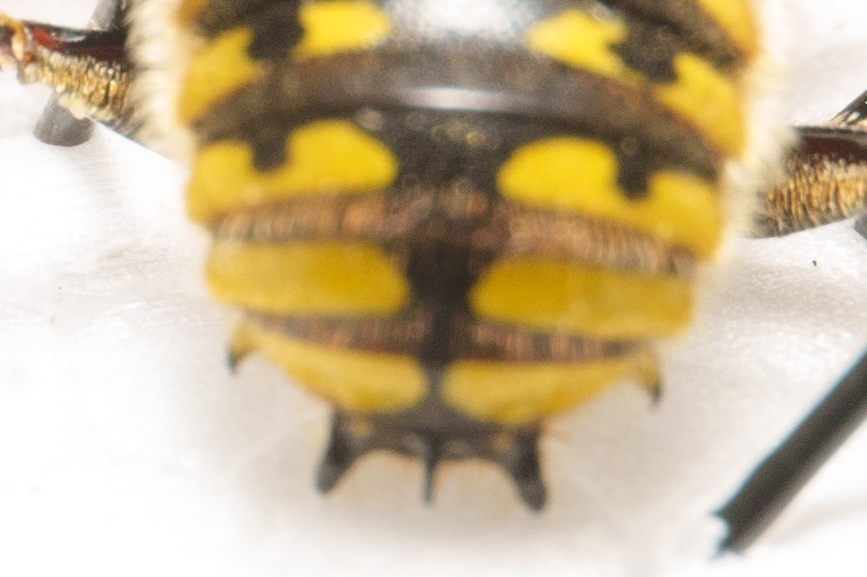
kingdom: Animalia
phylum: Arthropoda
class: Insecta
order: Hymenoptera
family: Megachilidae
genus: Anthidium
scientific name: Anthidium manicatum
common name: Wool carder bee
